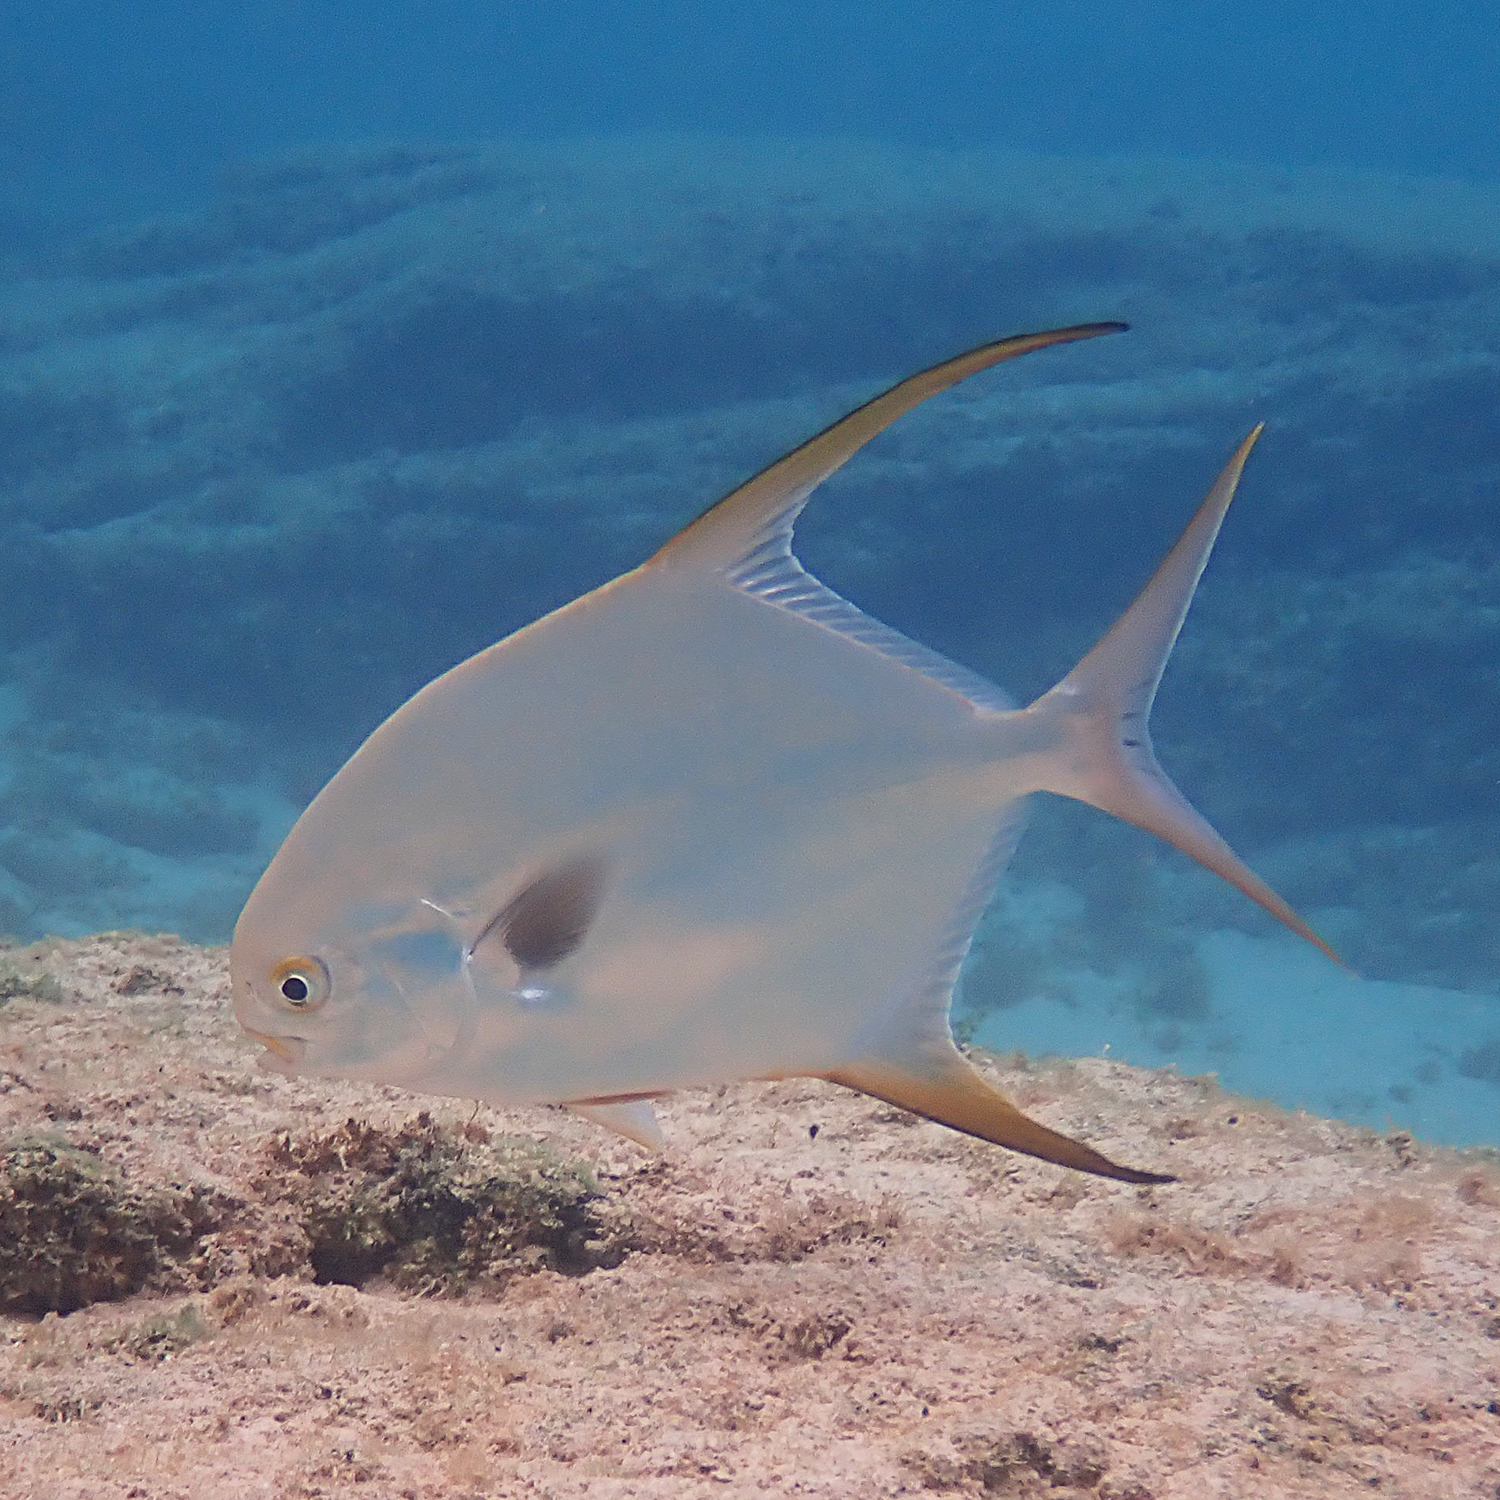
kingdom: Animalia
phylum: Chordata
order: Perciformes
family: Carangidae
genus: Trachinotus
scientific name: Trachinotus blochii
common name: Snubnose pompano
